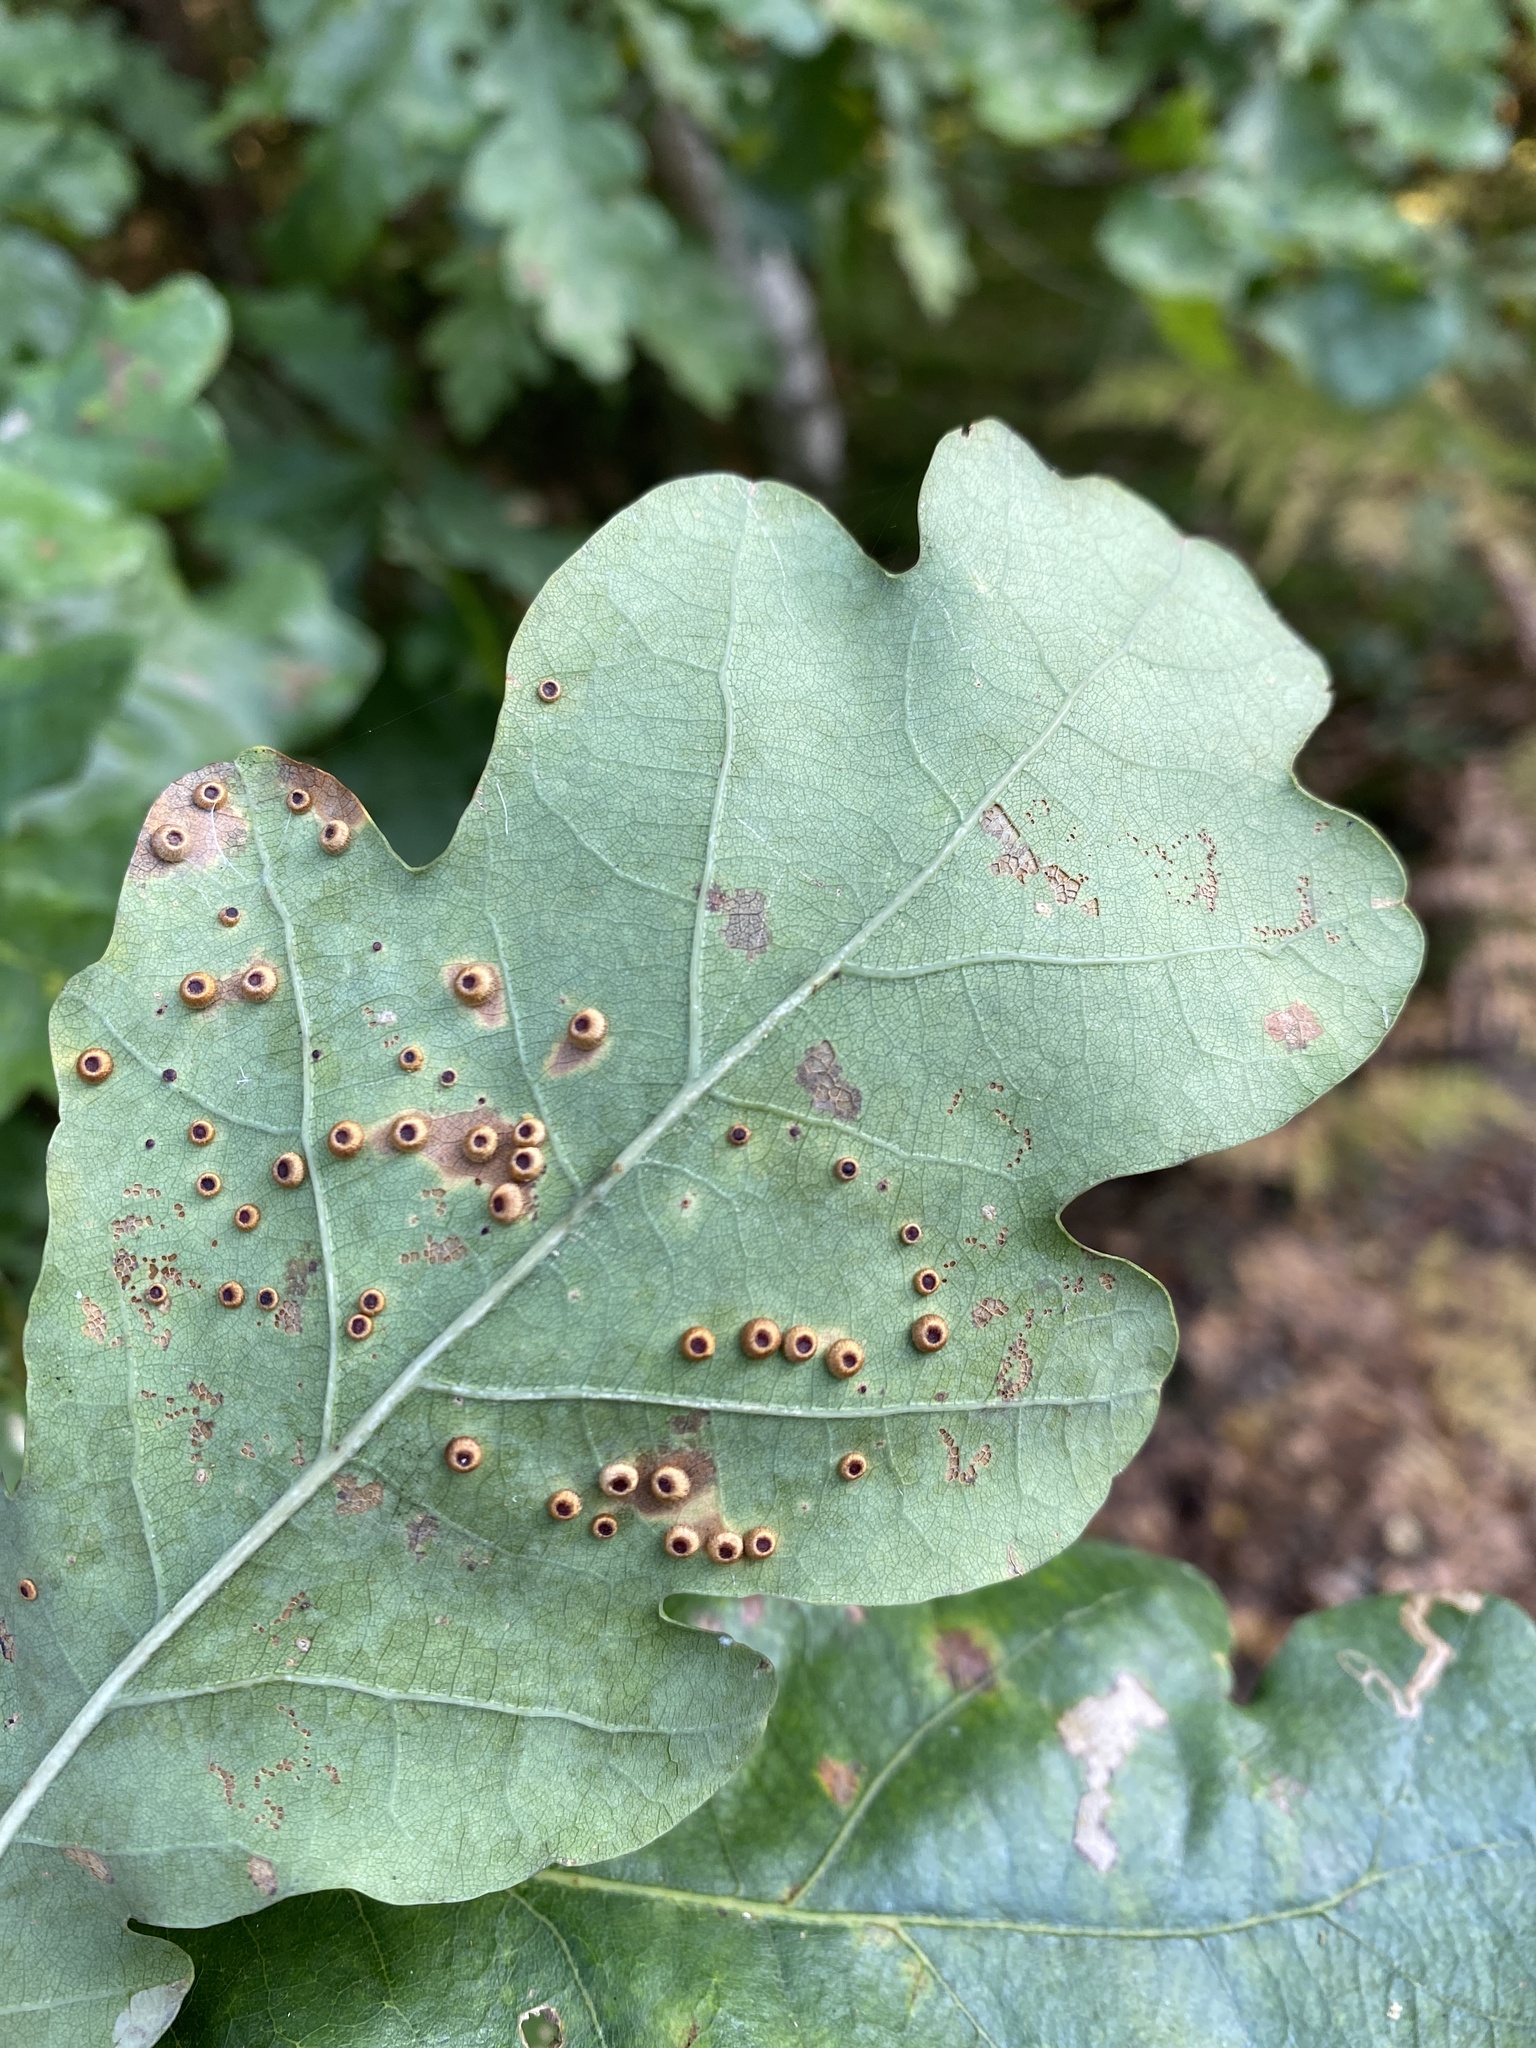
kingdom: Animalia
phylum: Arthropoda
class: Insecta
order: Hymenoptera
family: Cynipidae
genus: Neuroterus
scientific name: Neuroterus numismalis
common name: Silk-button spangle gall
